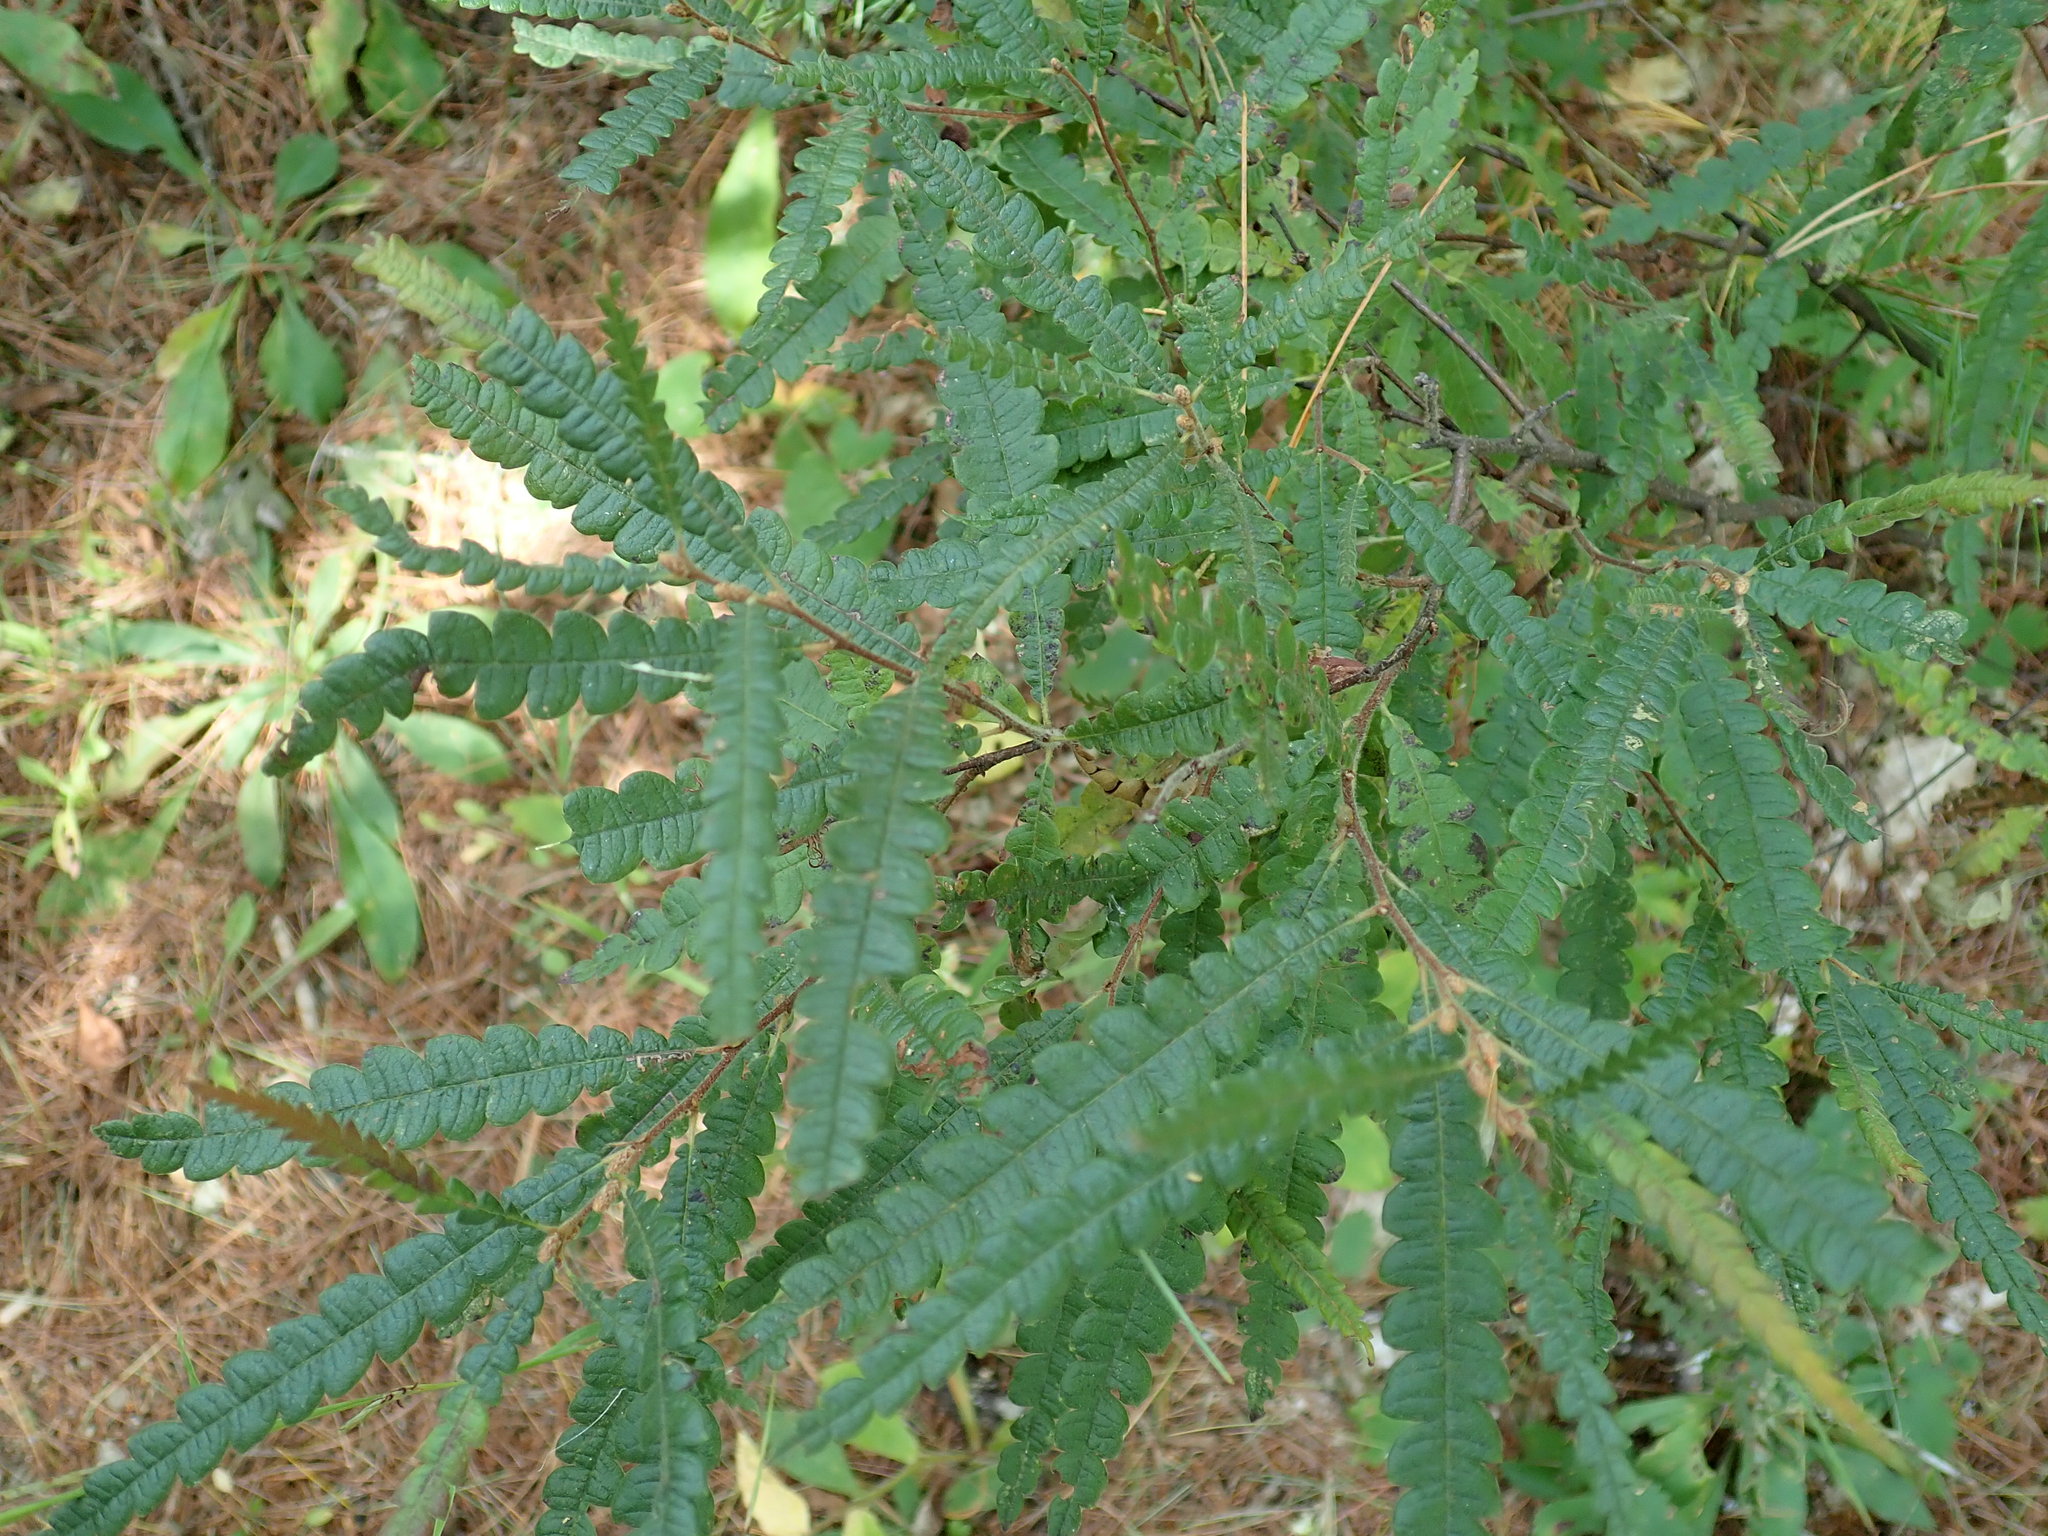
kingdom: Plantae
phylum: Tracheophyta
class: Magnoliopsida
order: Fagales
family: Myricaceae
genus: Comptonia
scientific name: Comptonia peregrina
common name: Sweet-fern
